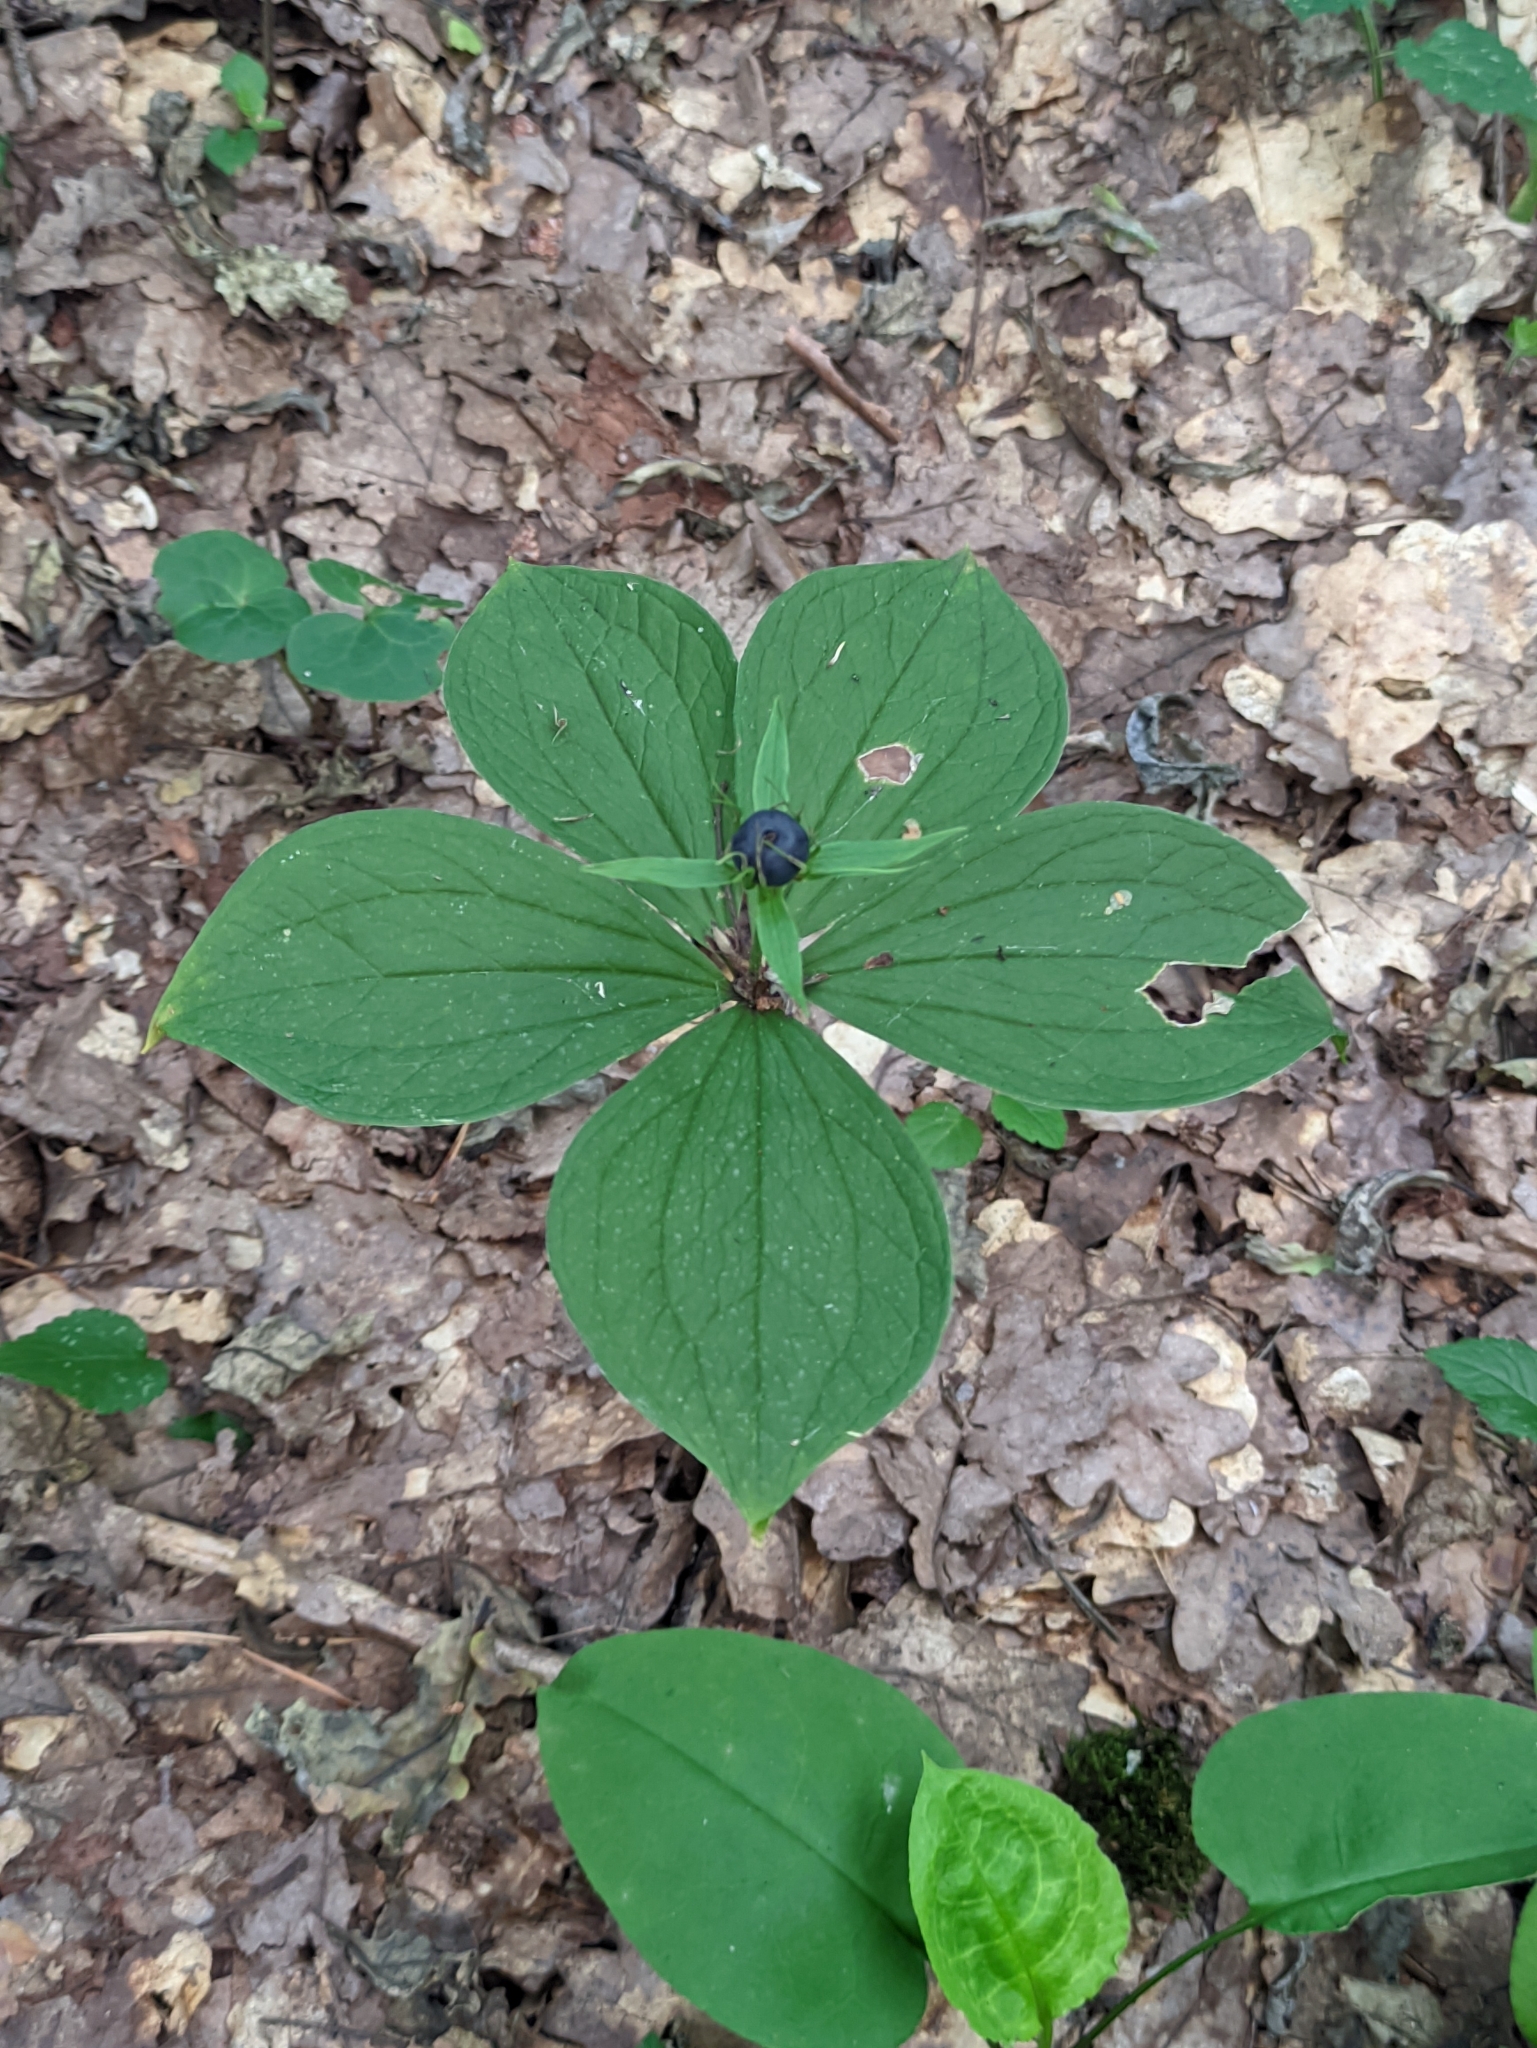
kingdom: Plantae
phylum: Tracheophyta
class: Liliopsida
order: Liliales
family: Melanthiaceae
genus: Paris
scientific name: Paris quadrifolia
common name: Herb-paris
